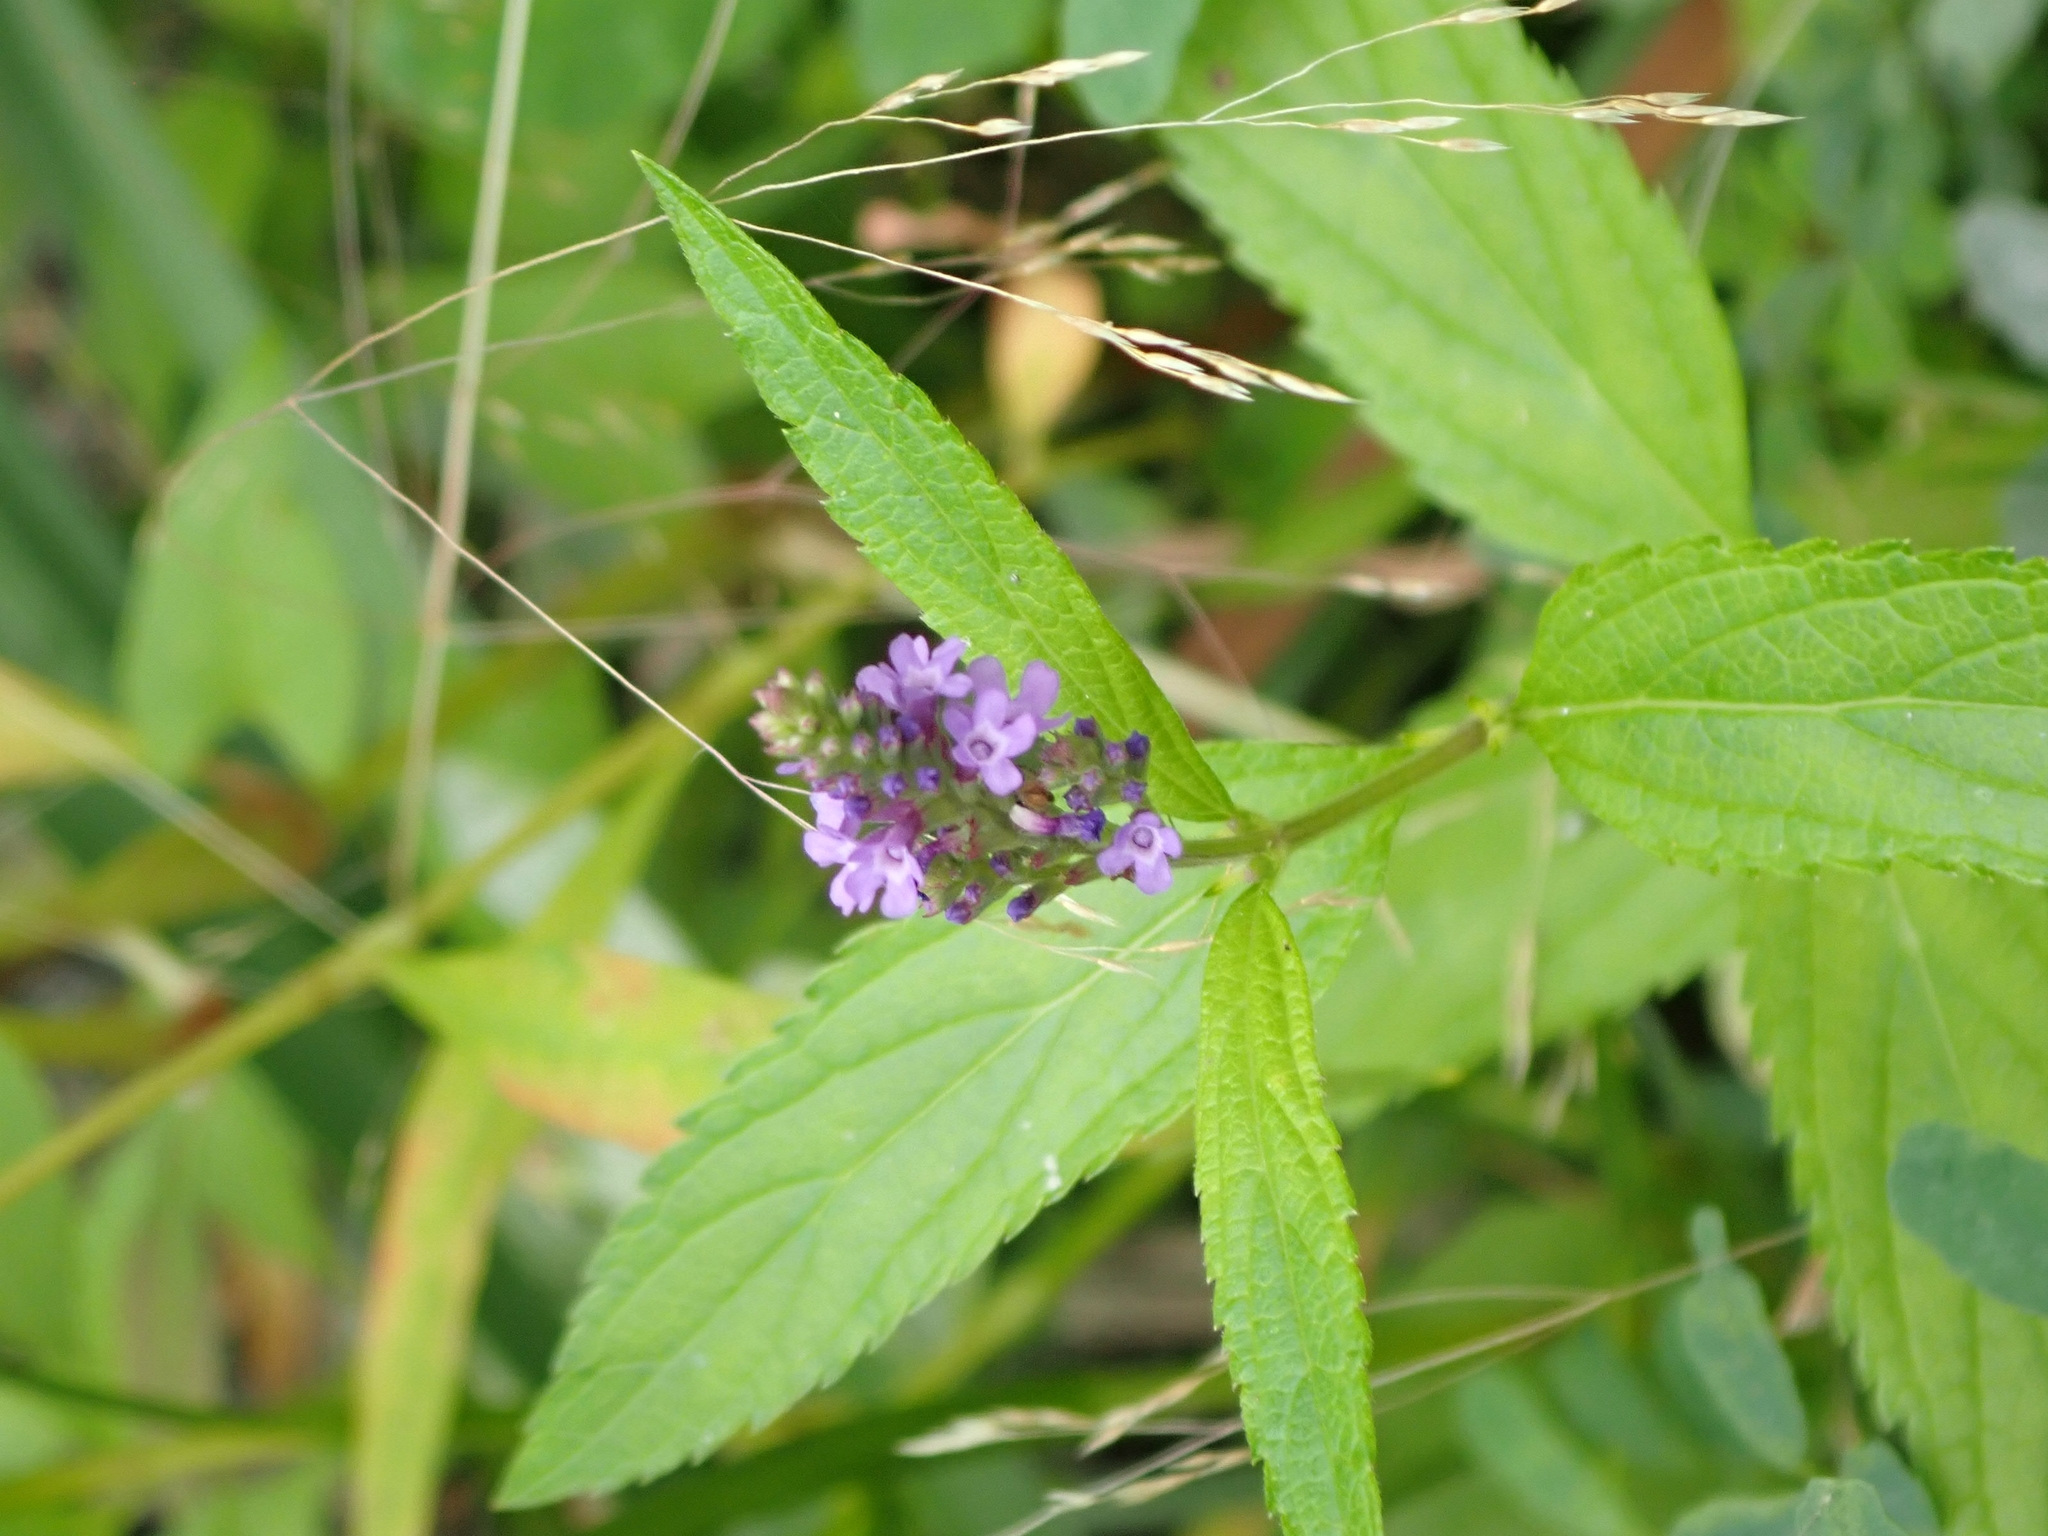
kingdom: Plantae
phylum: Tracheophyta
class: Magnoliopsida
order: Lamiales
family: Verbenaceae
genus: Verbena
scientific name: Verbena hastata
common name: American blue vervain
